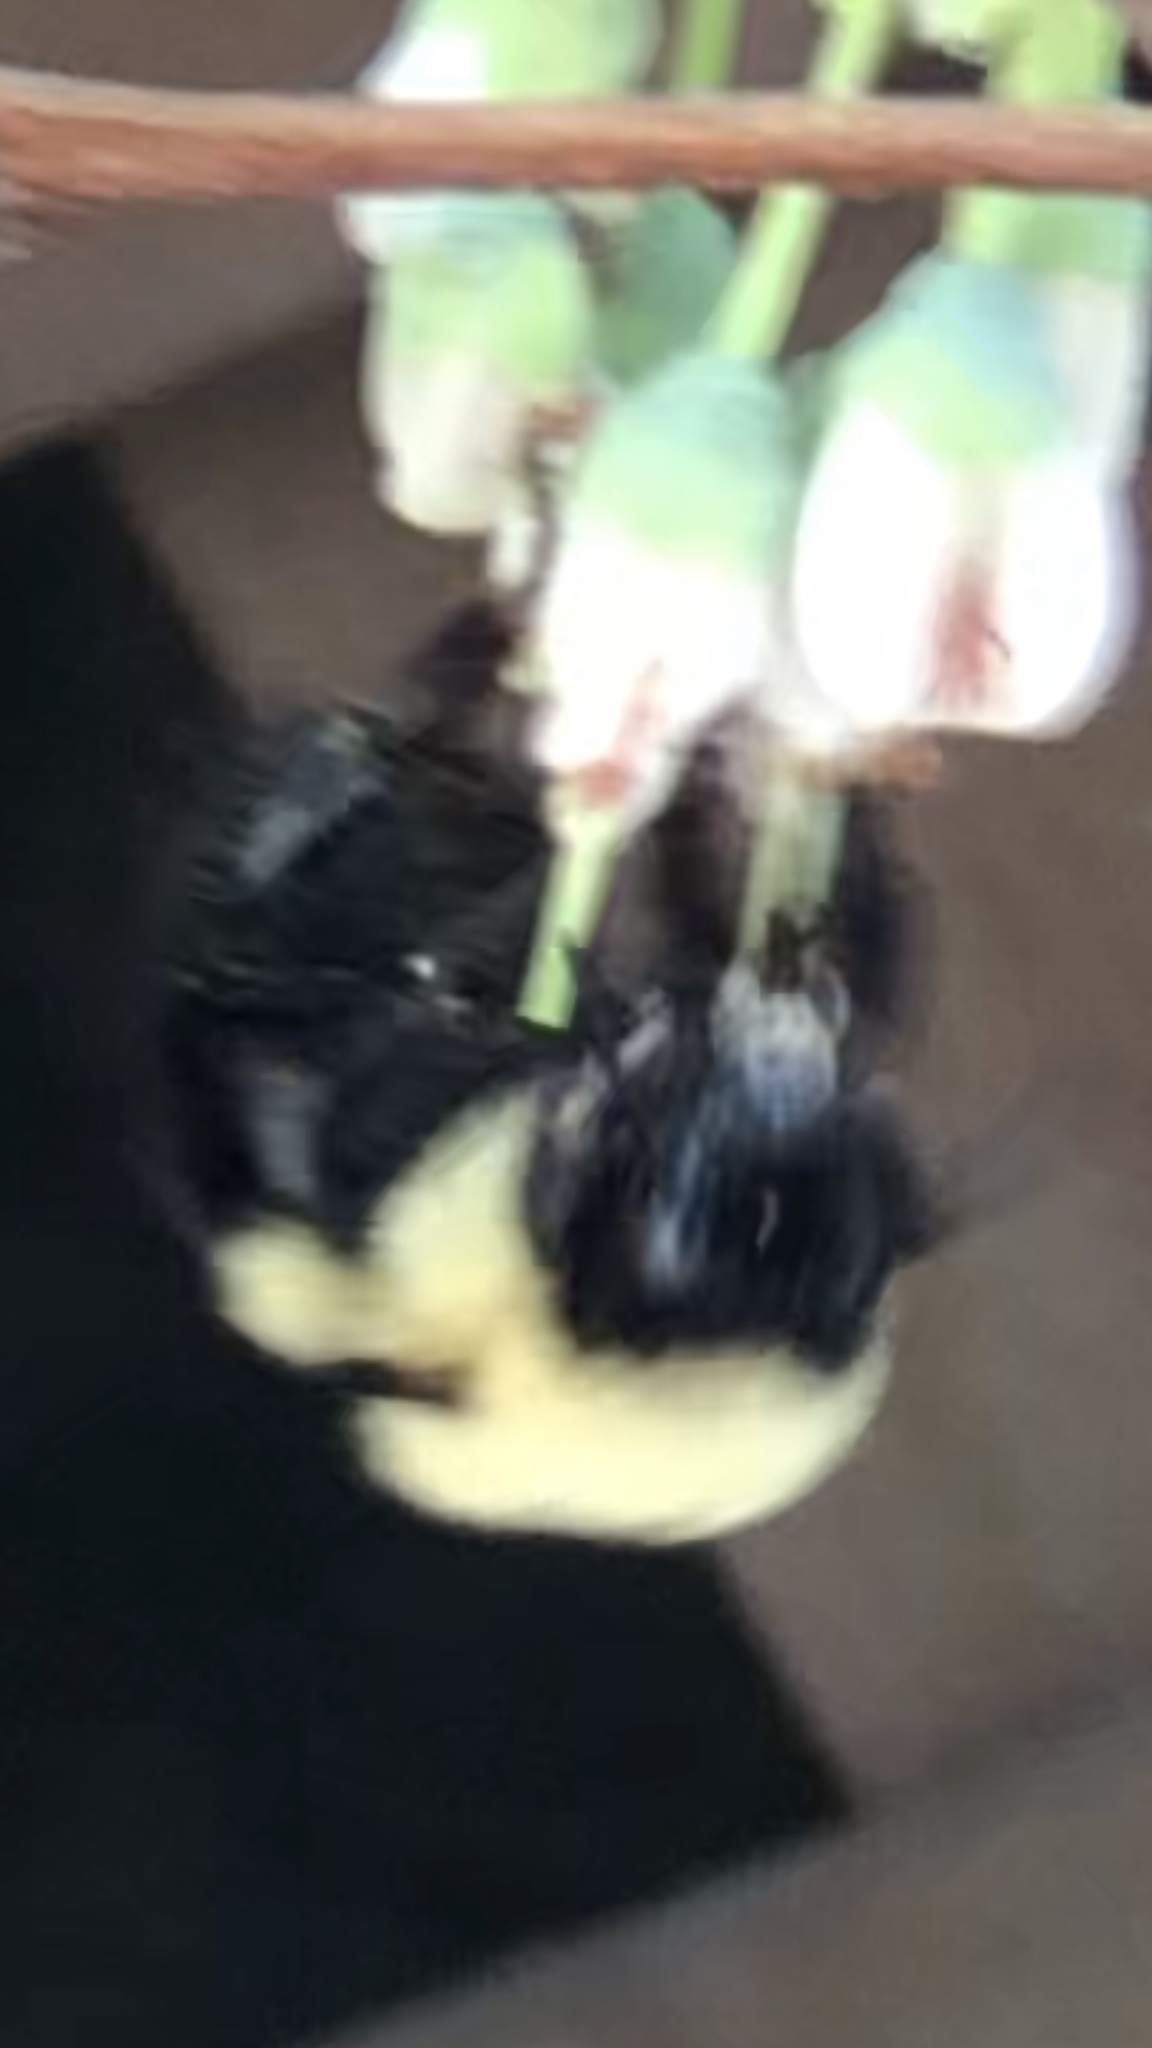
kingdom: Animalia
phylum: Arthropoda
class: Insecta
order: Hymenoptera
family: Apidae
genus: Bombus
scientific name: Bombus bimaculatus
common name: Two-spotted bumble bee
